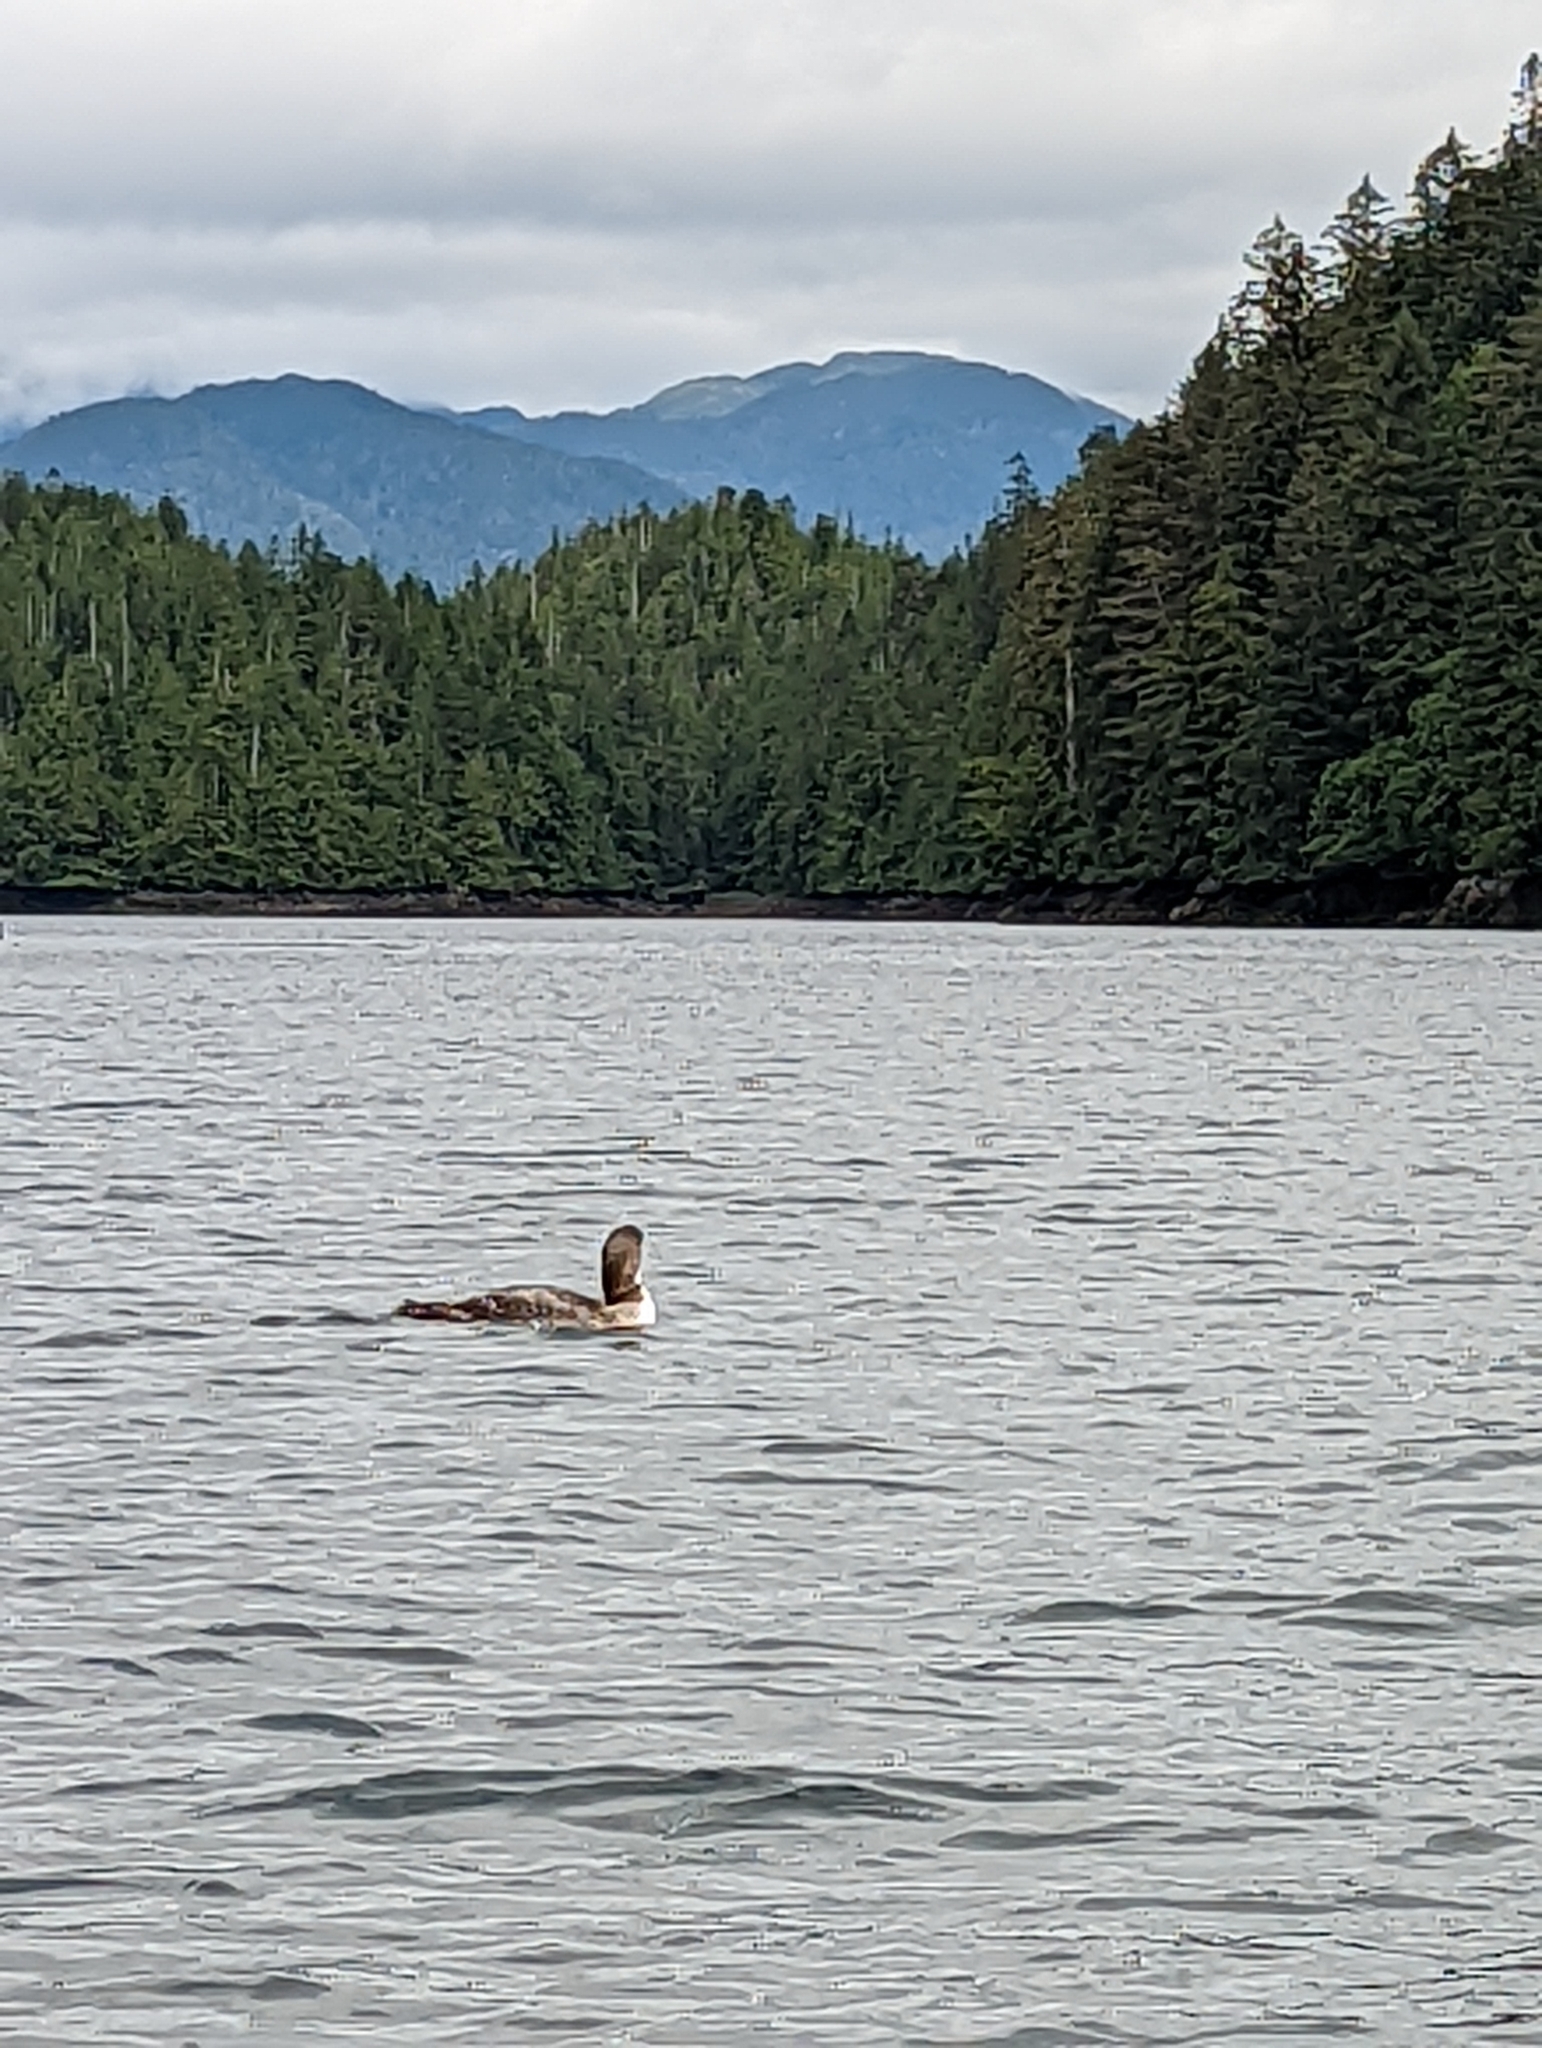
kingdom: Animalia
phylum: Chordata
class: Aves
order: Gaviiformes
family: Gaviidae
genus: Gavia
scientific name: Gavia immer
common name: Common loon
